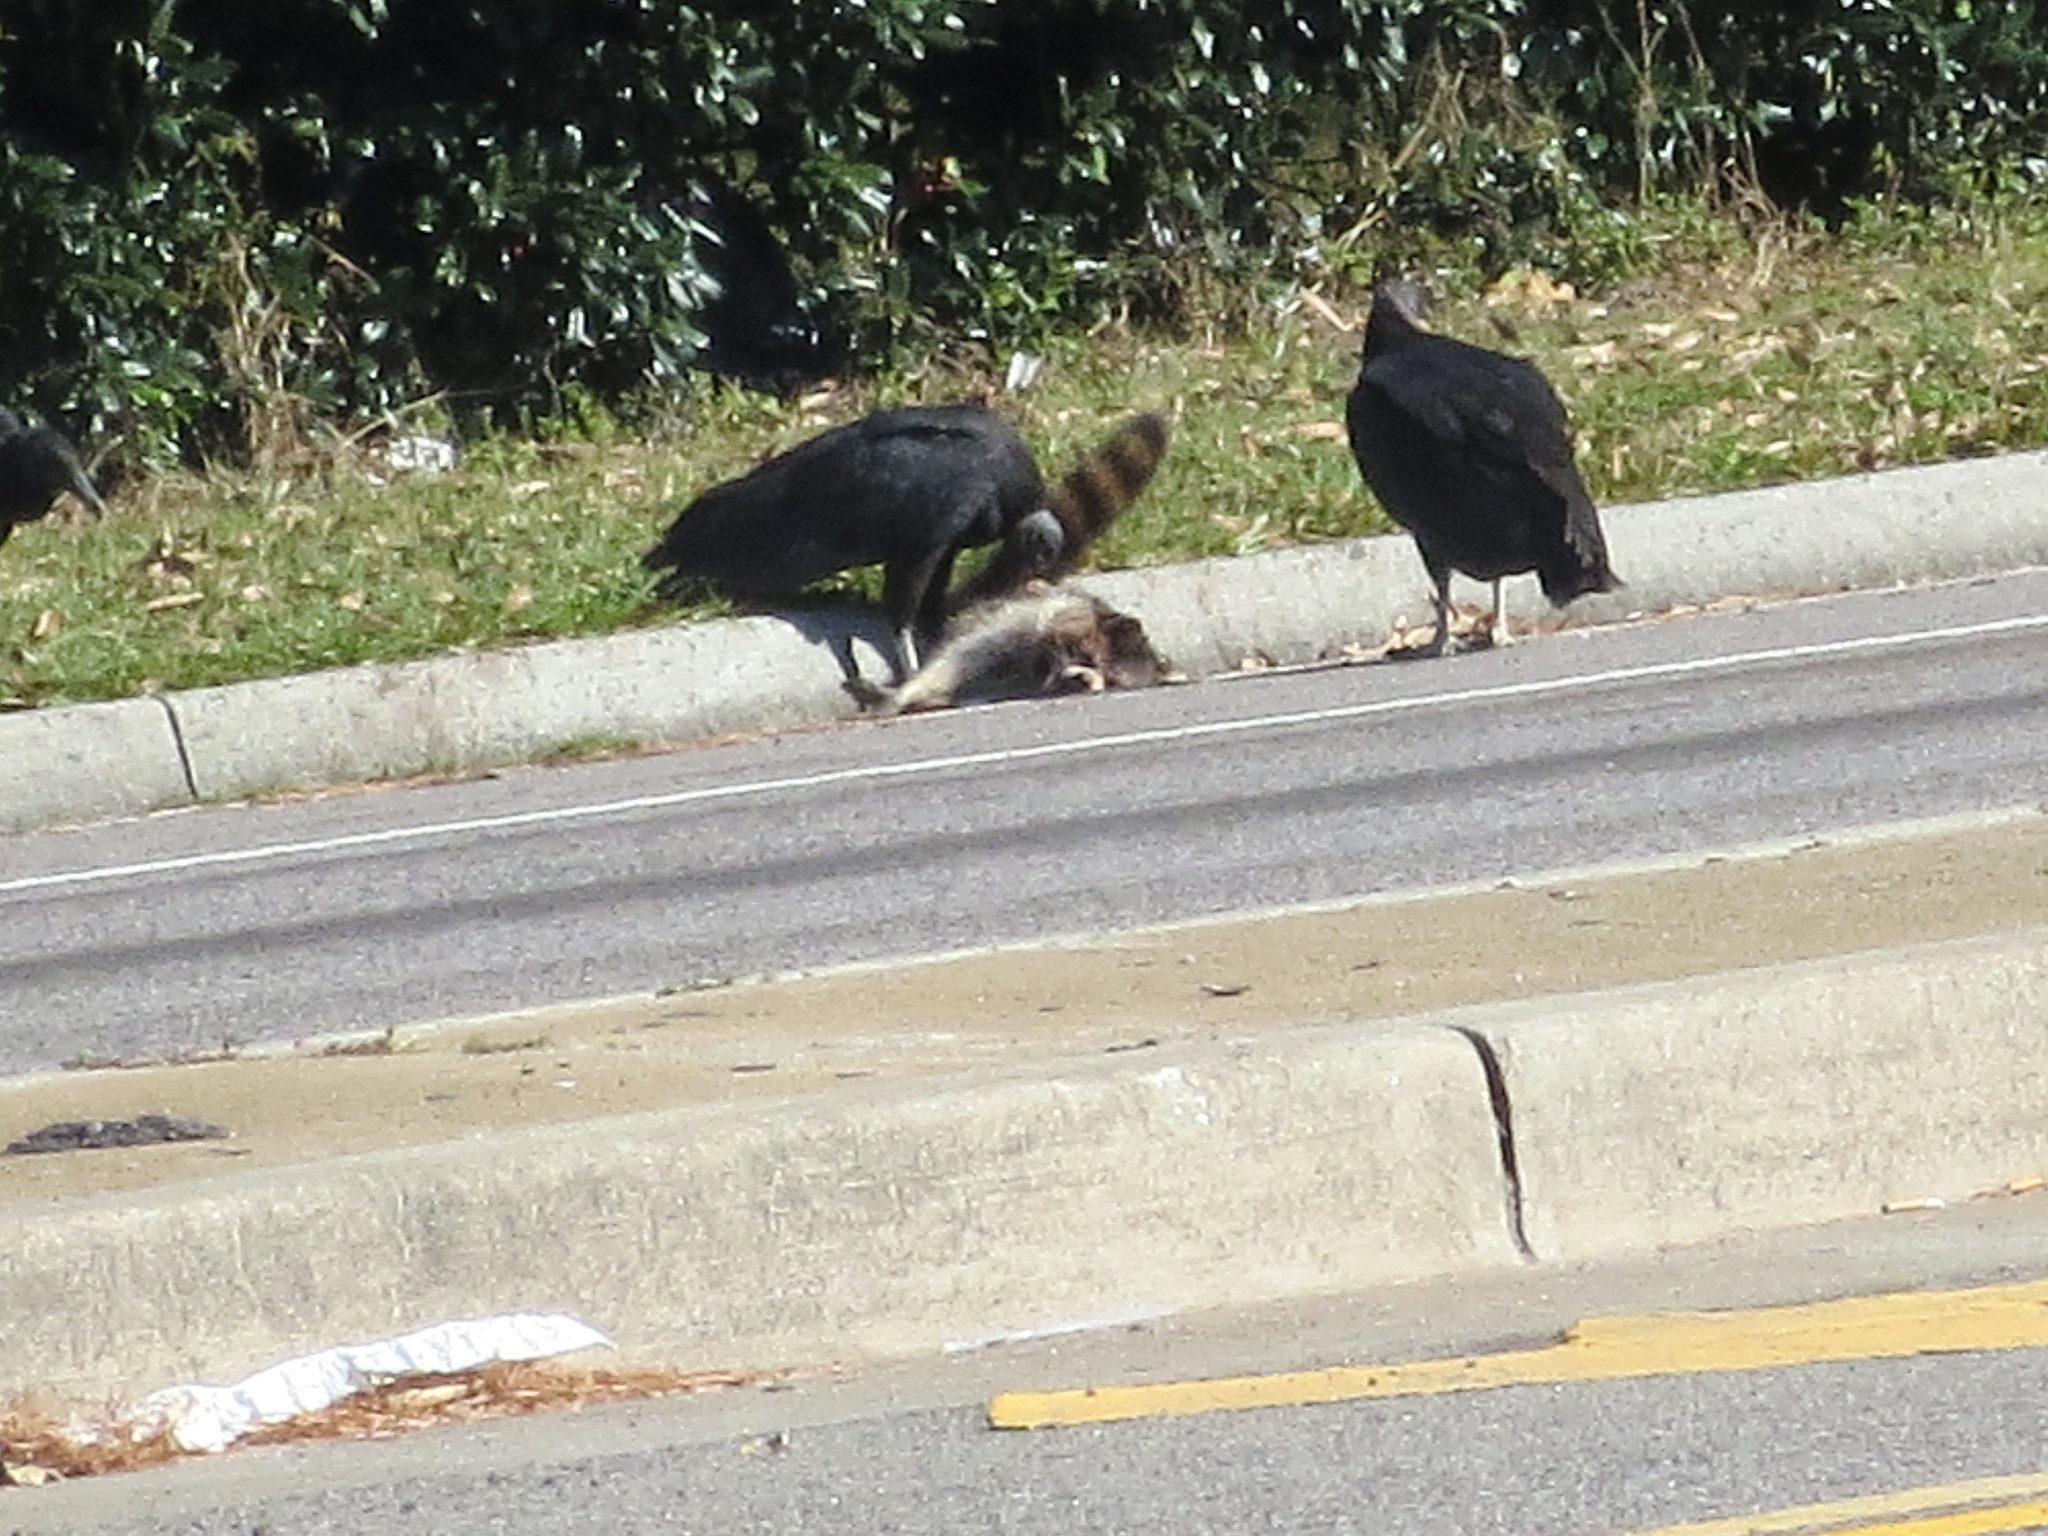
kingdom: Animalia
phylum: Chordata
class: Mammalia
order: Carnivora
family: Procyonidae
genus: Procyon
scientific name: Procyon lotor
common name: Raccoon
